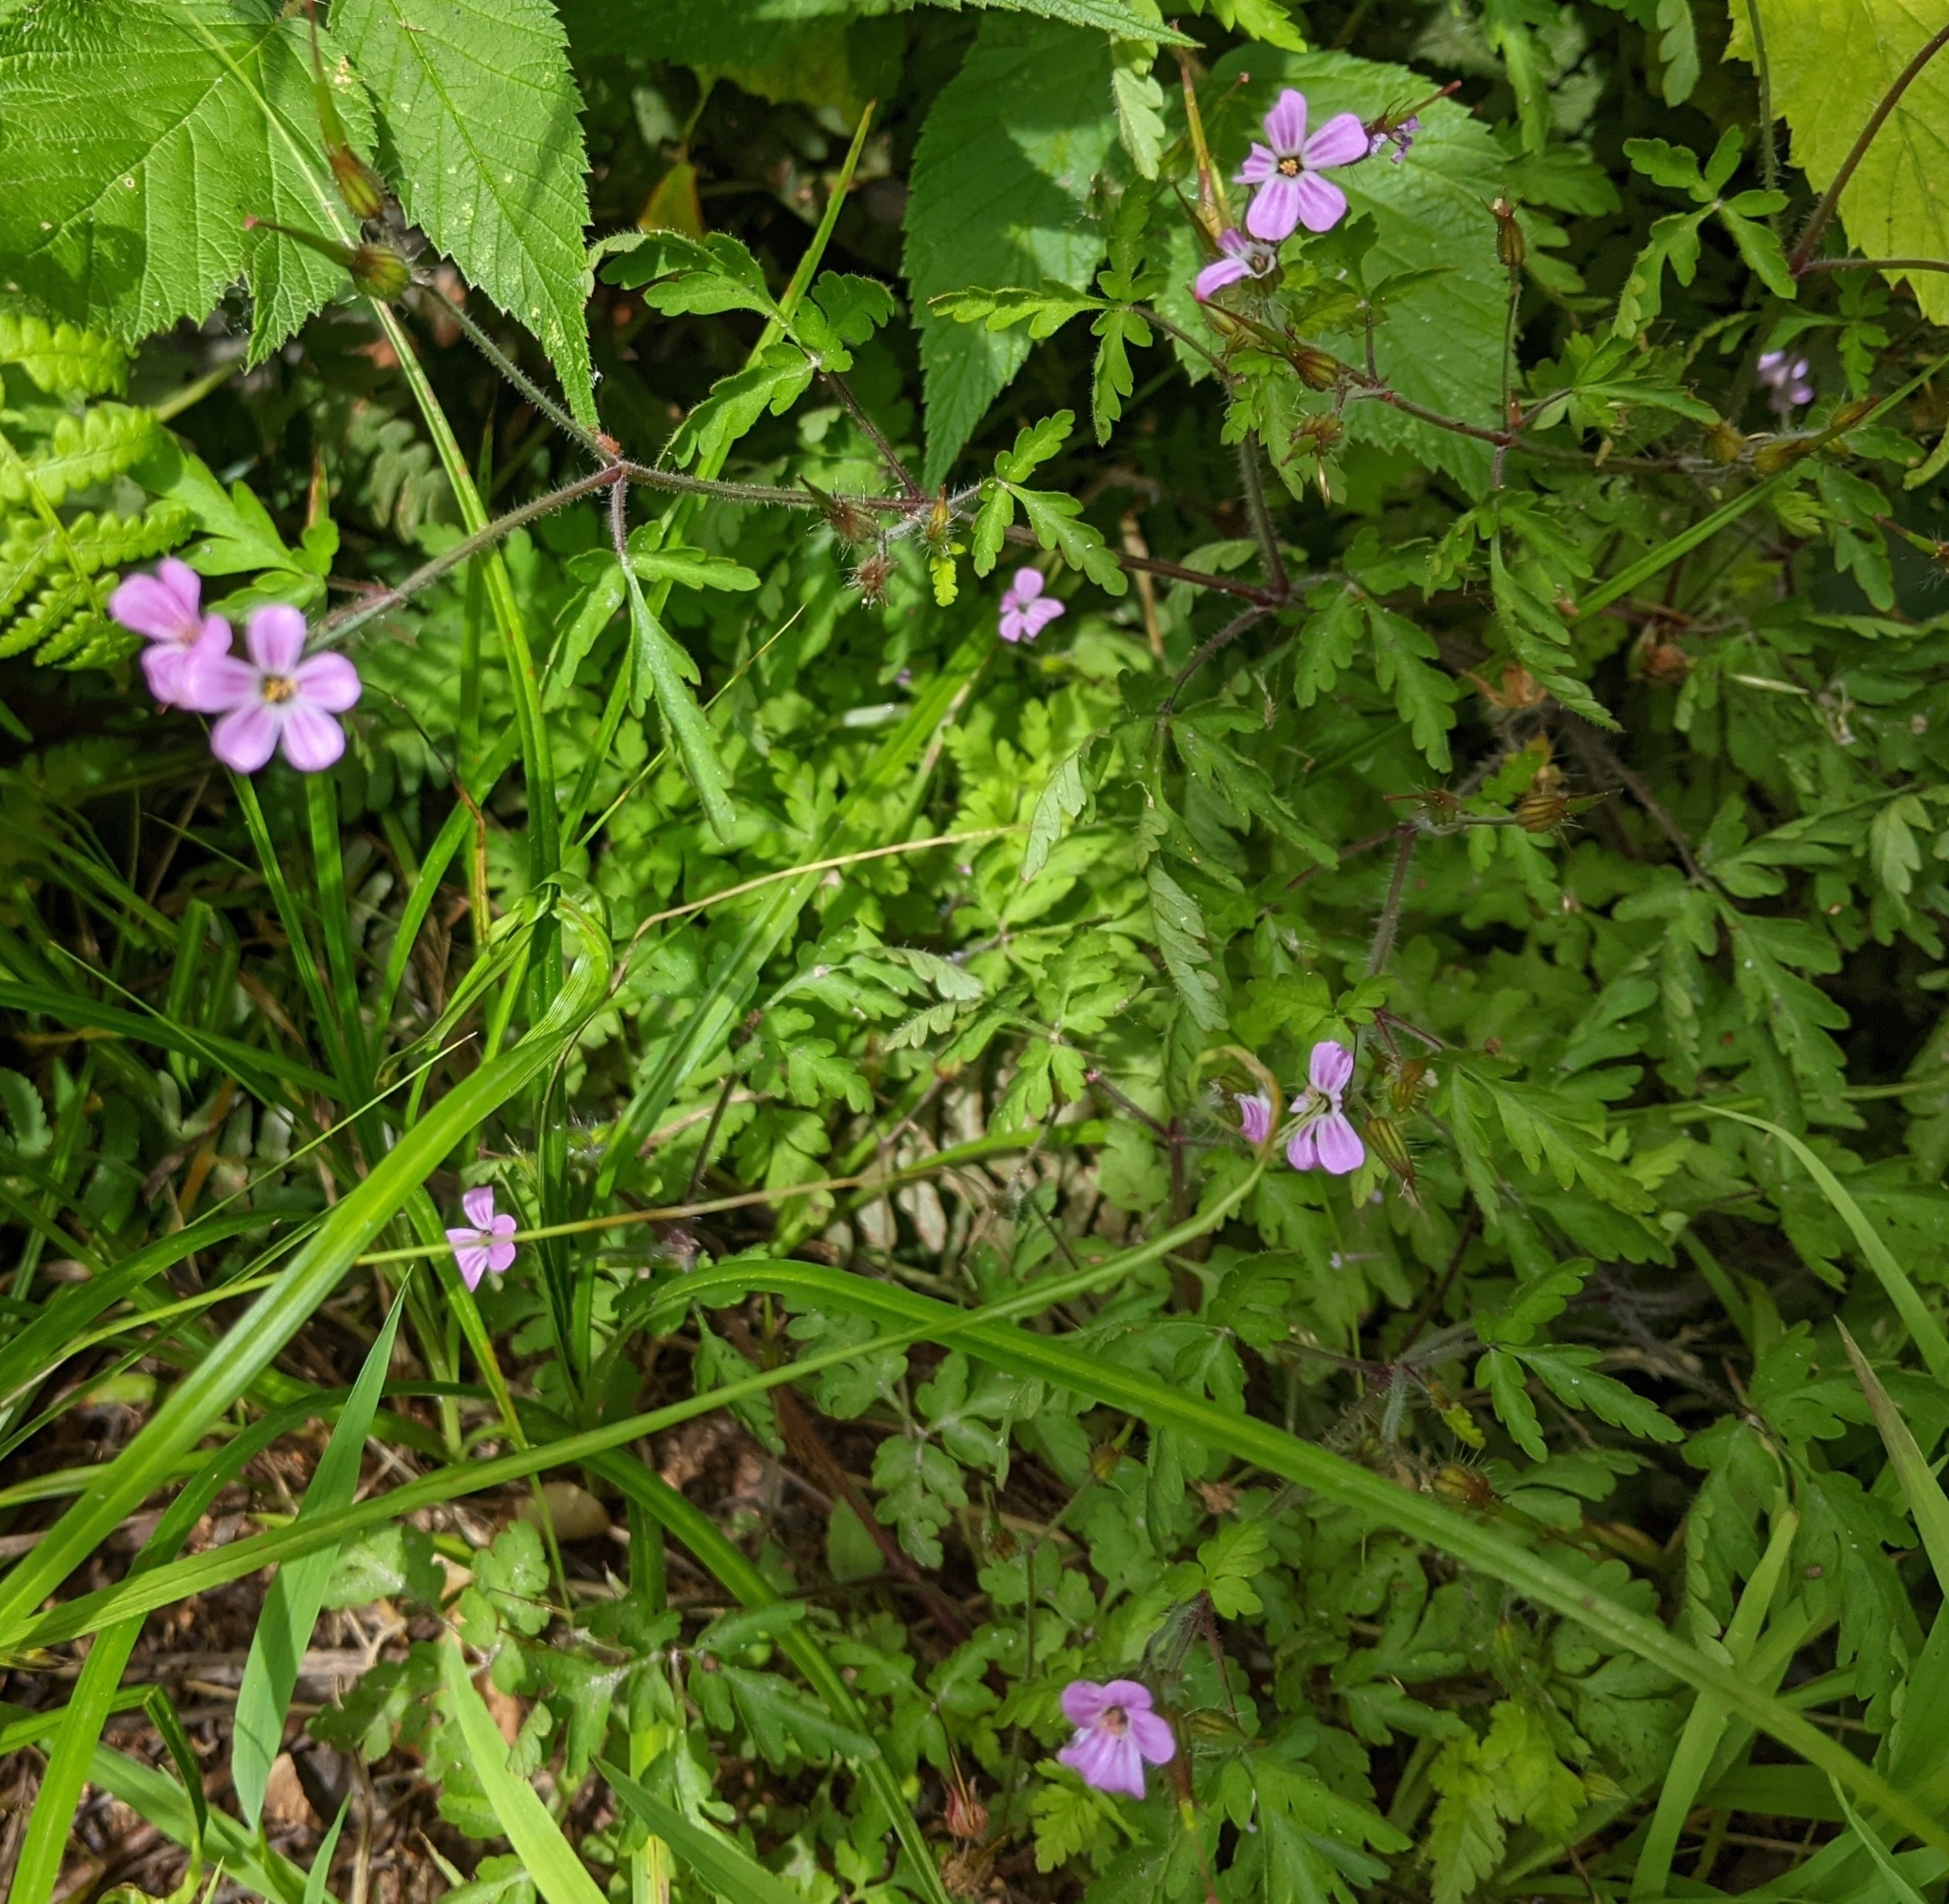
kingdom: Plantae
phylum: Tracheophyta
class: Magnoliopsida
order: Geraniales
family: Geraniaceae
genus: Geranium
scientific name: Geranium robertianum
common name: Herb-robert
